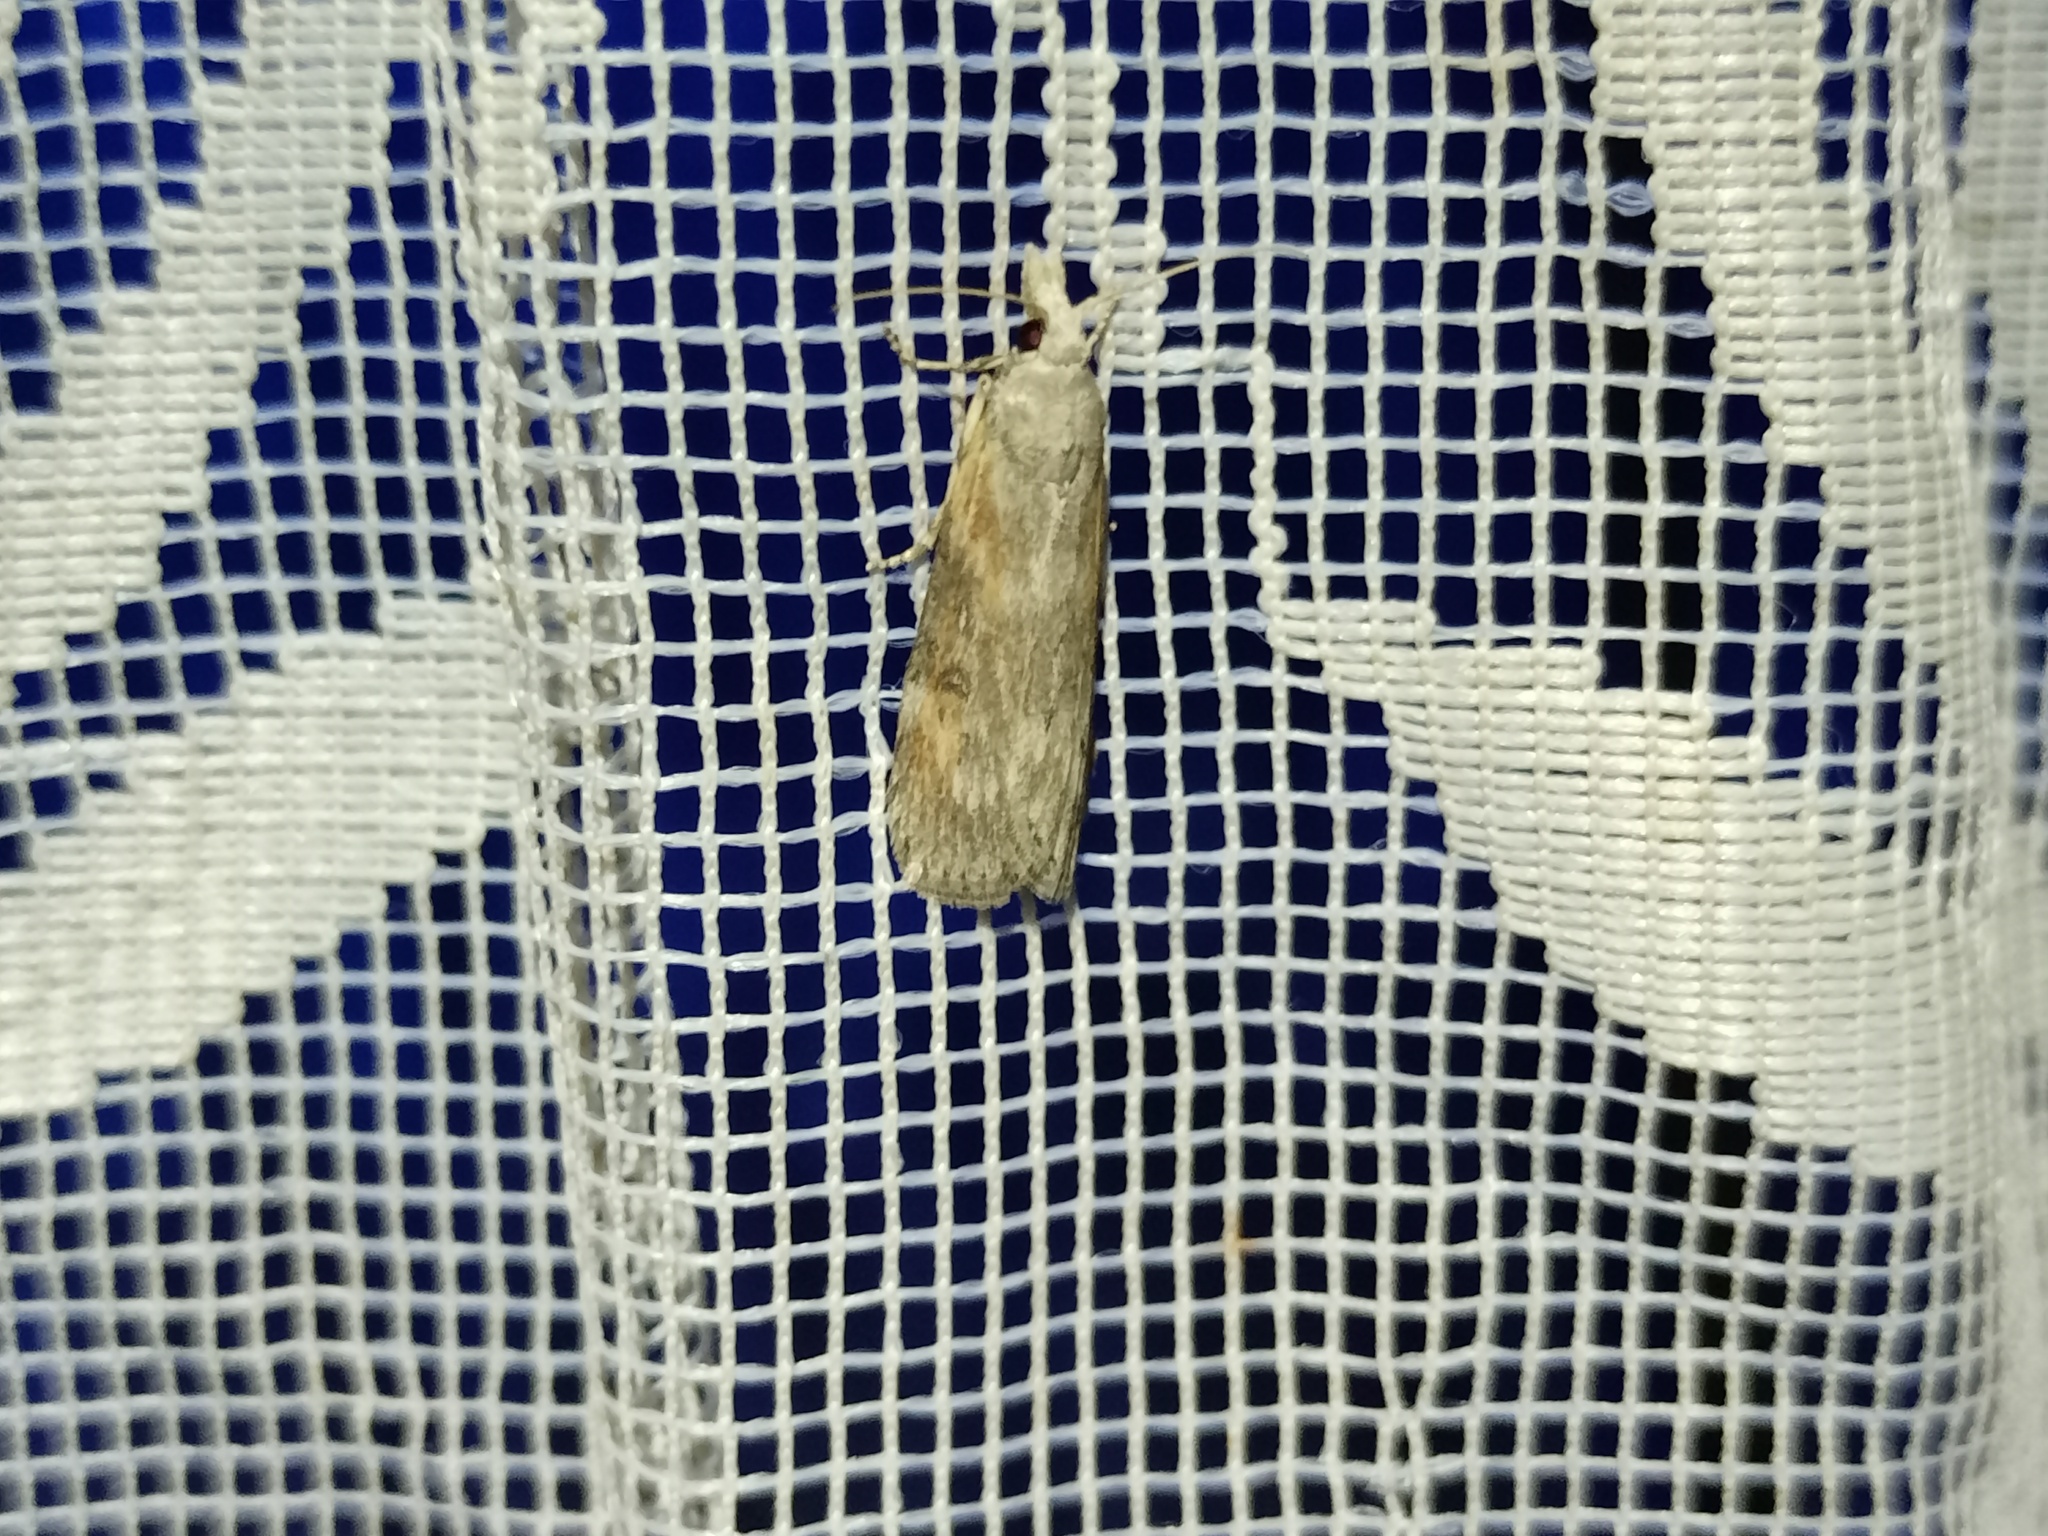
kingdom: Animalia
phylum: Arthropoda
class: Insecta
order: Lepidoptera
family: Pyralidae
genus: Lamoria
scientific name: Lamoria anella
